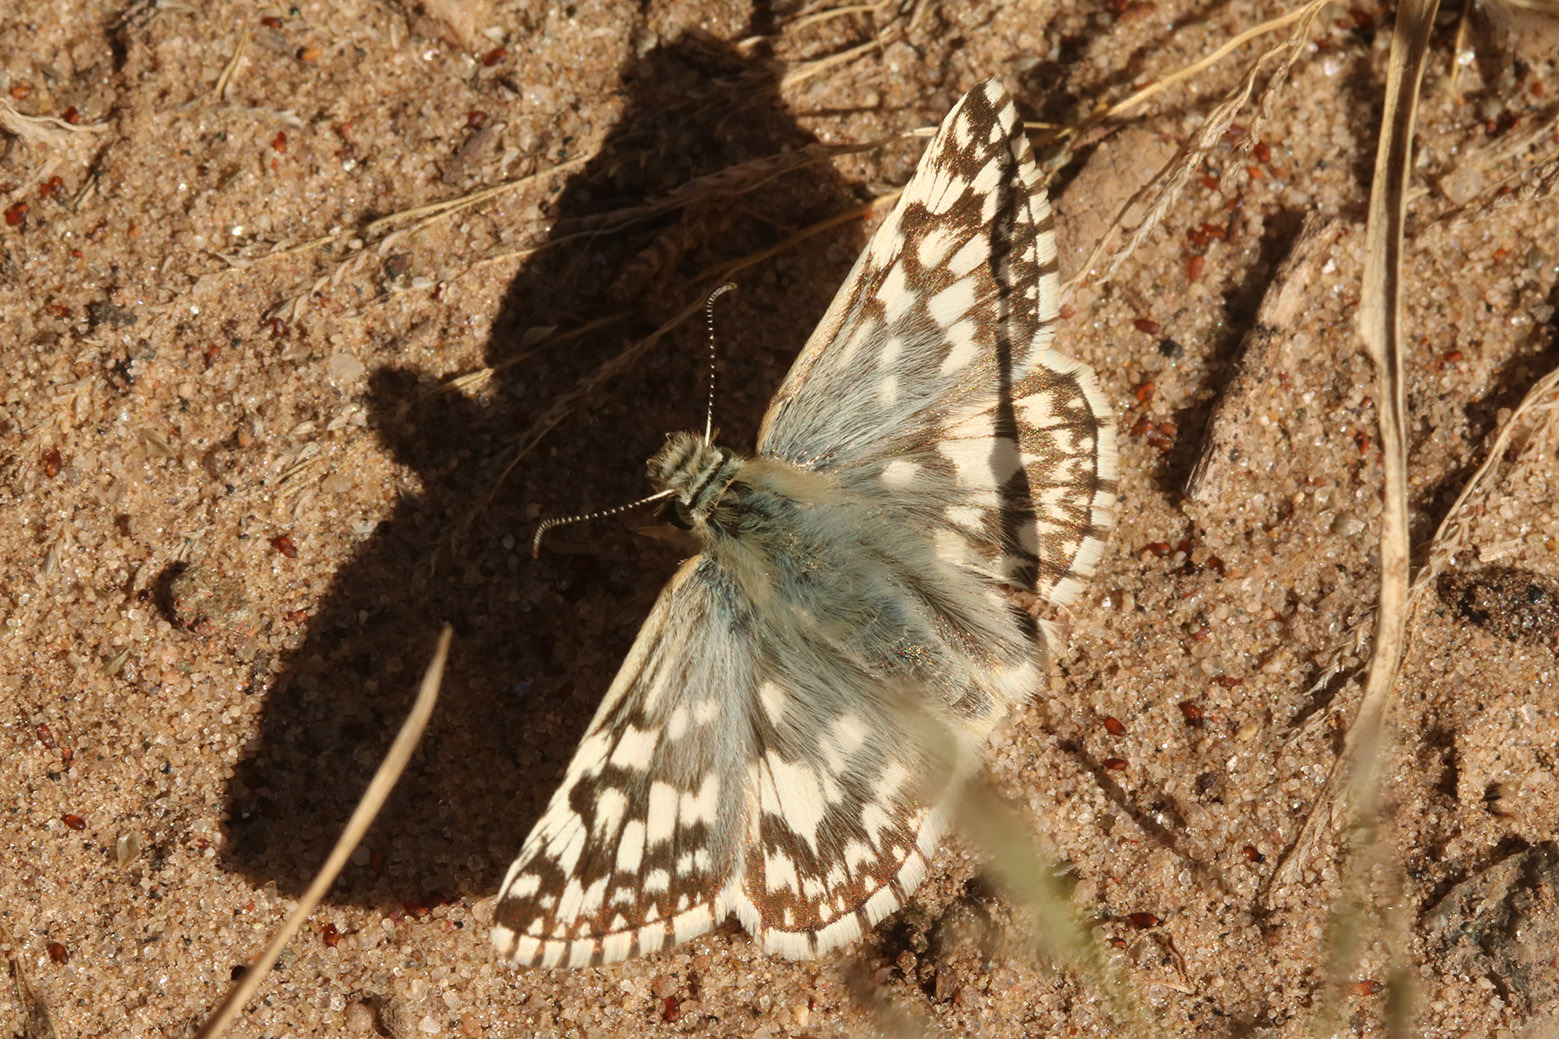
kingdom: Animalia
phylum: Arthropoda
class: Insecta
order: Lepidoptera
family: Hesperiidae
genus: Heliopetes
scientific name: Heliopetes americanus
